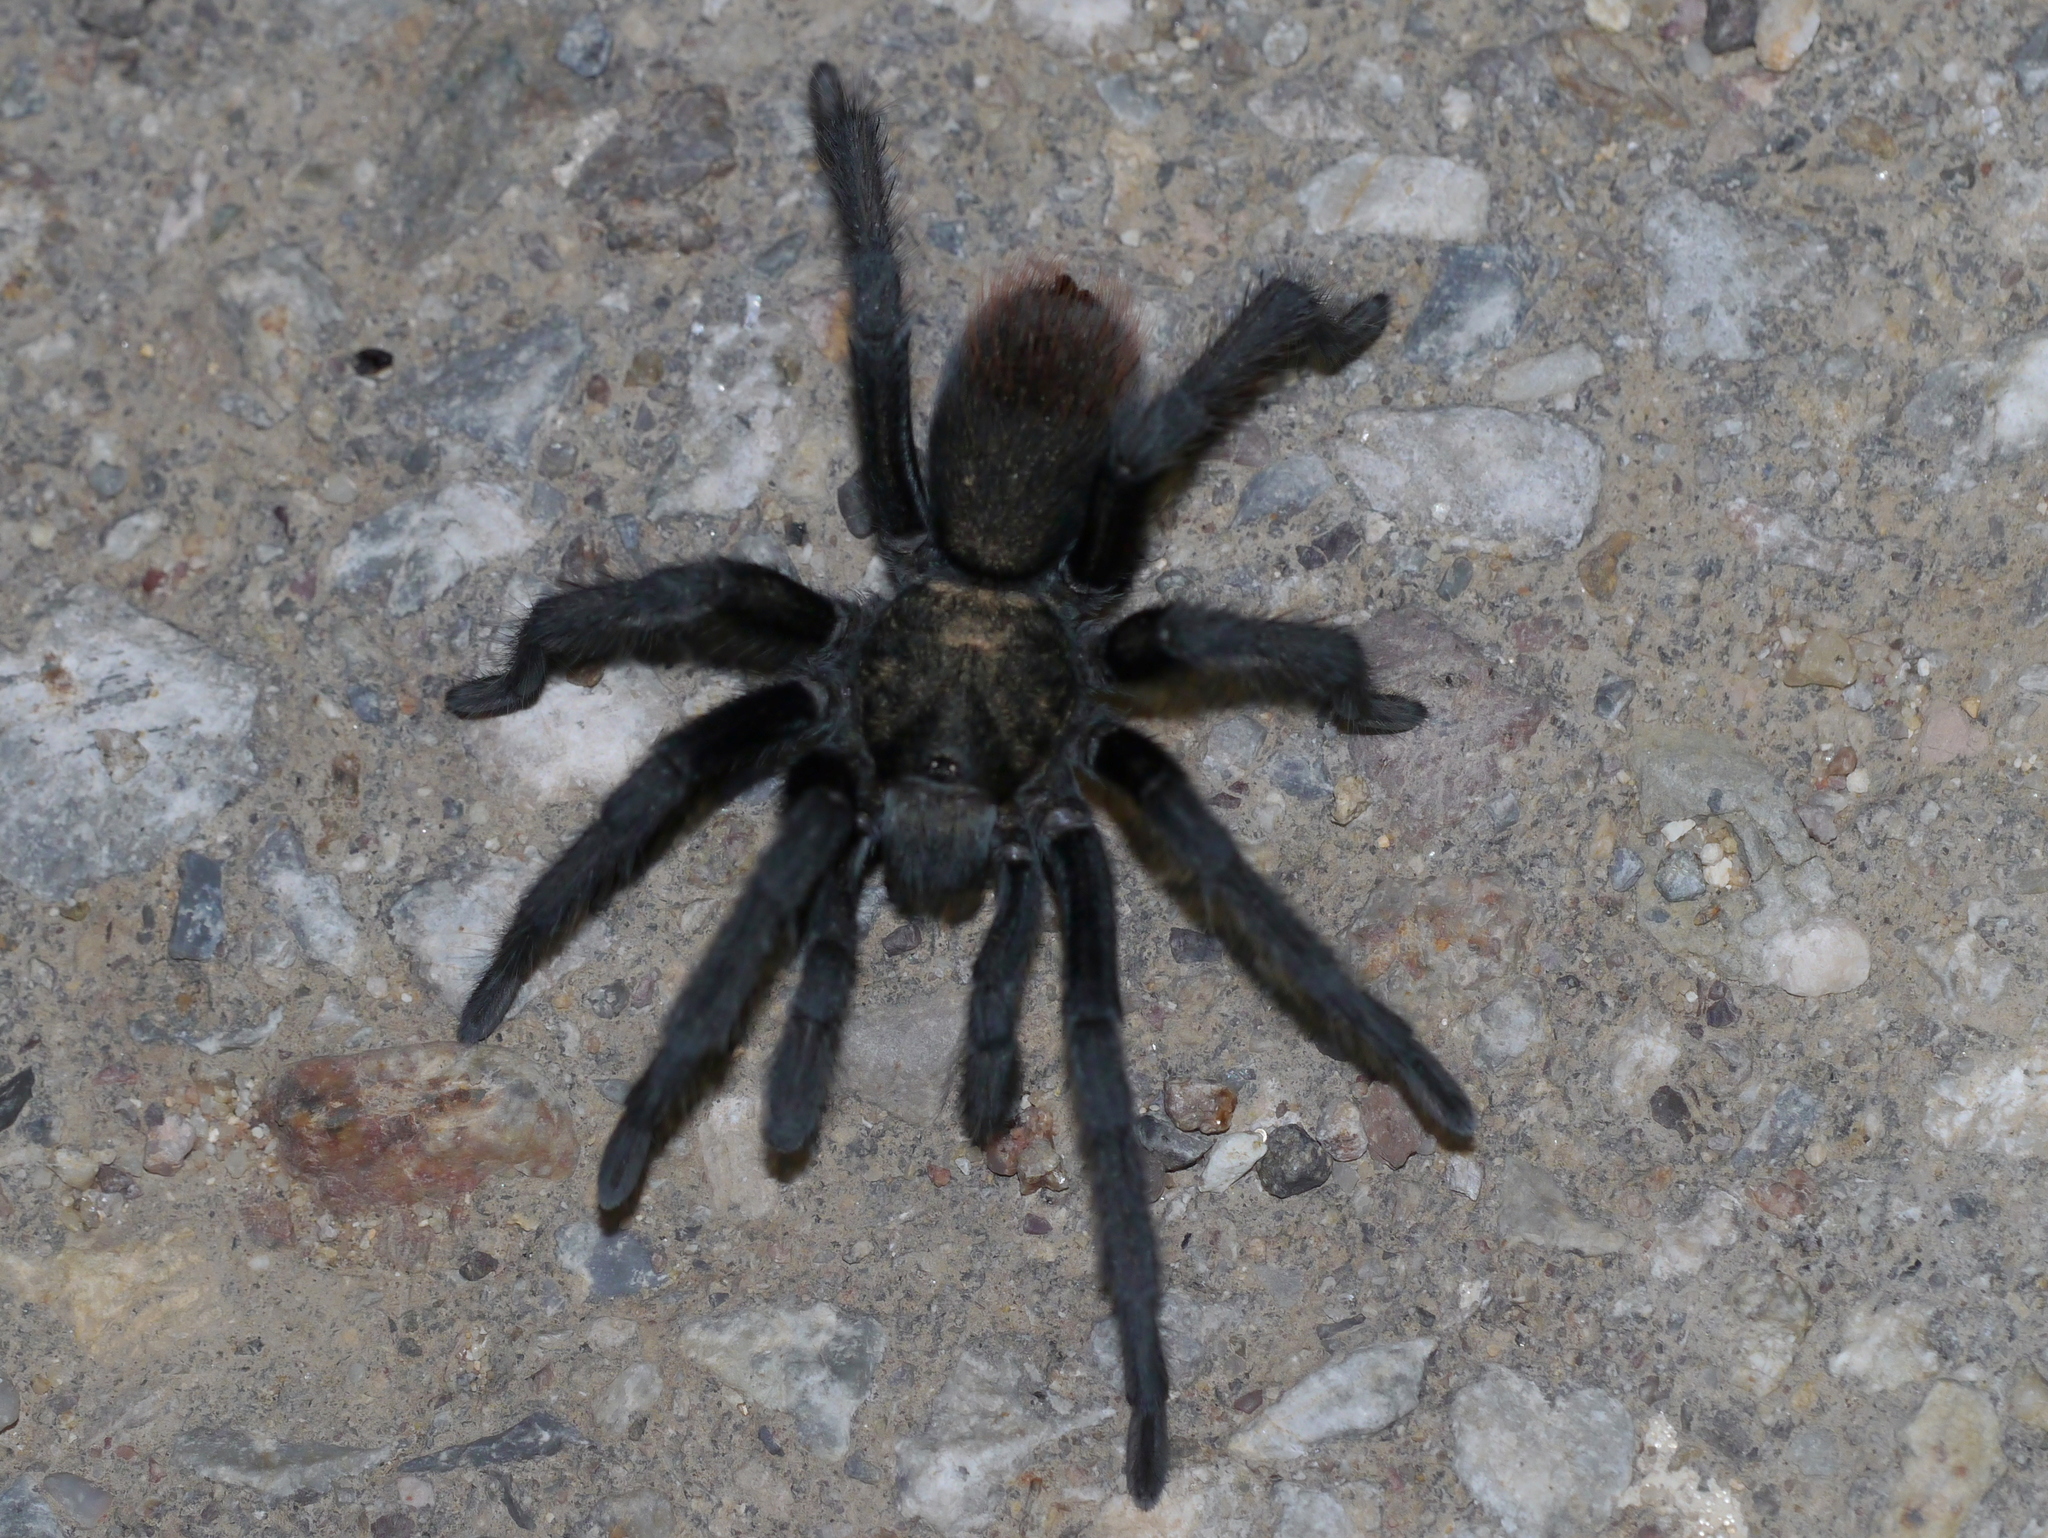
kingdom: Animalia
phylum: Arthropoda
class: Arachnida
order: Araneae
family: Theraphosidae
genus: Aphonopelma
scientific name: Aphonopelma vorhiesi
